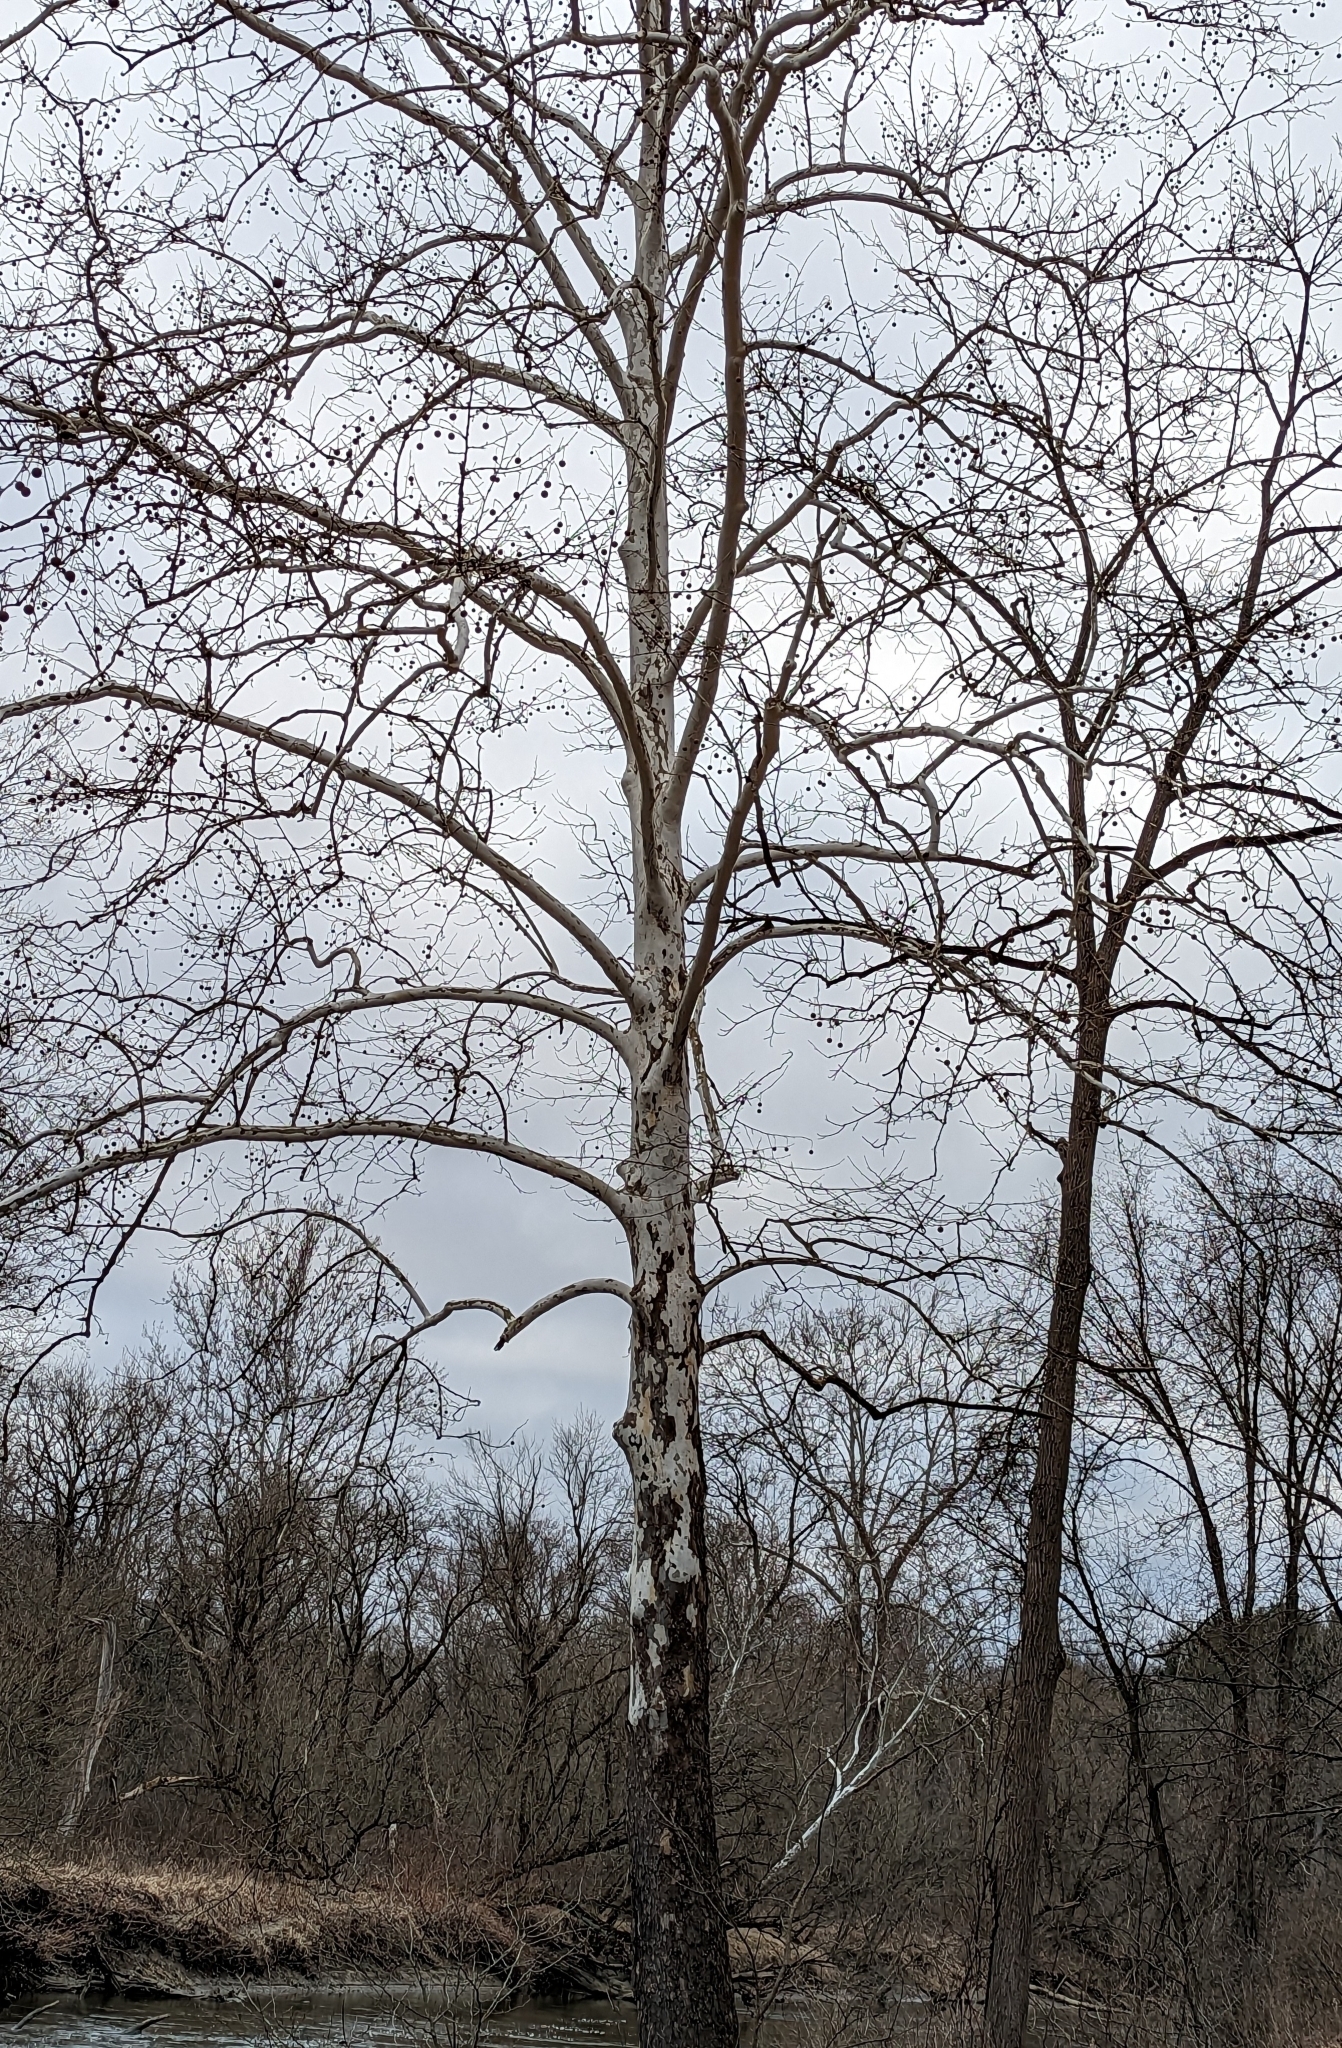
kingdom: Plantae
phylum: Tracheophyta
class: Magnoliopsida
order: Proteales
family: Platanaceae
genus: Platanus
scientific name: Platanus occidentalis
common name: American sycamore
